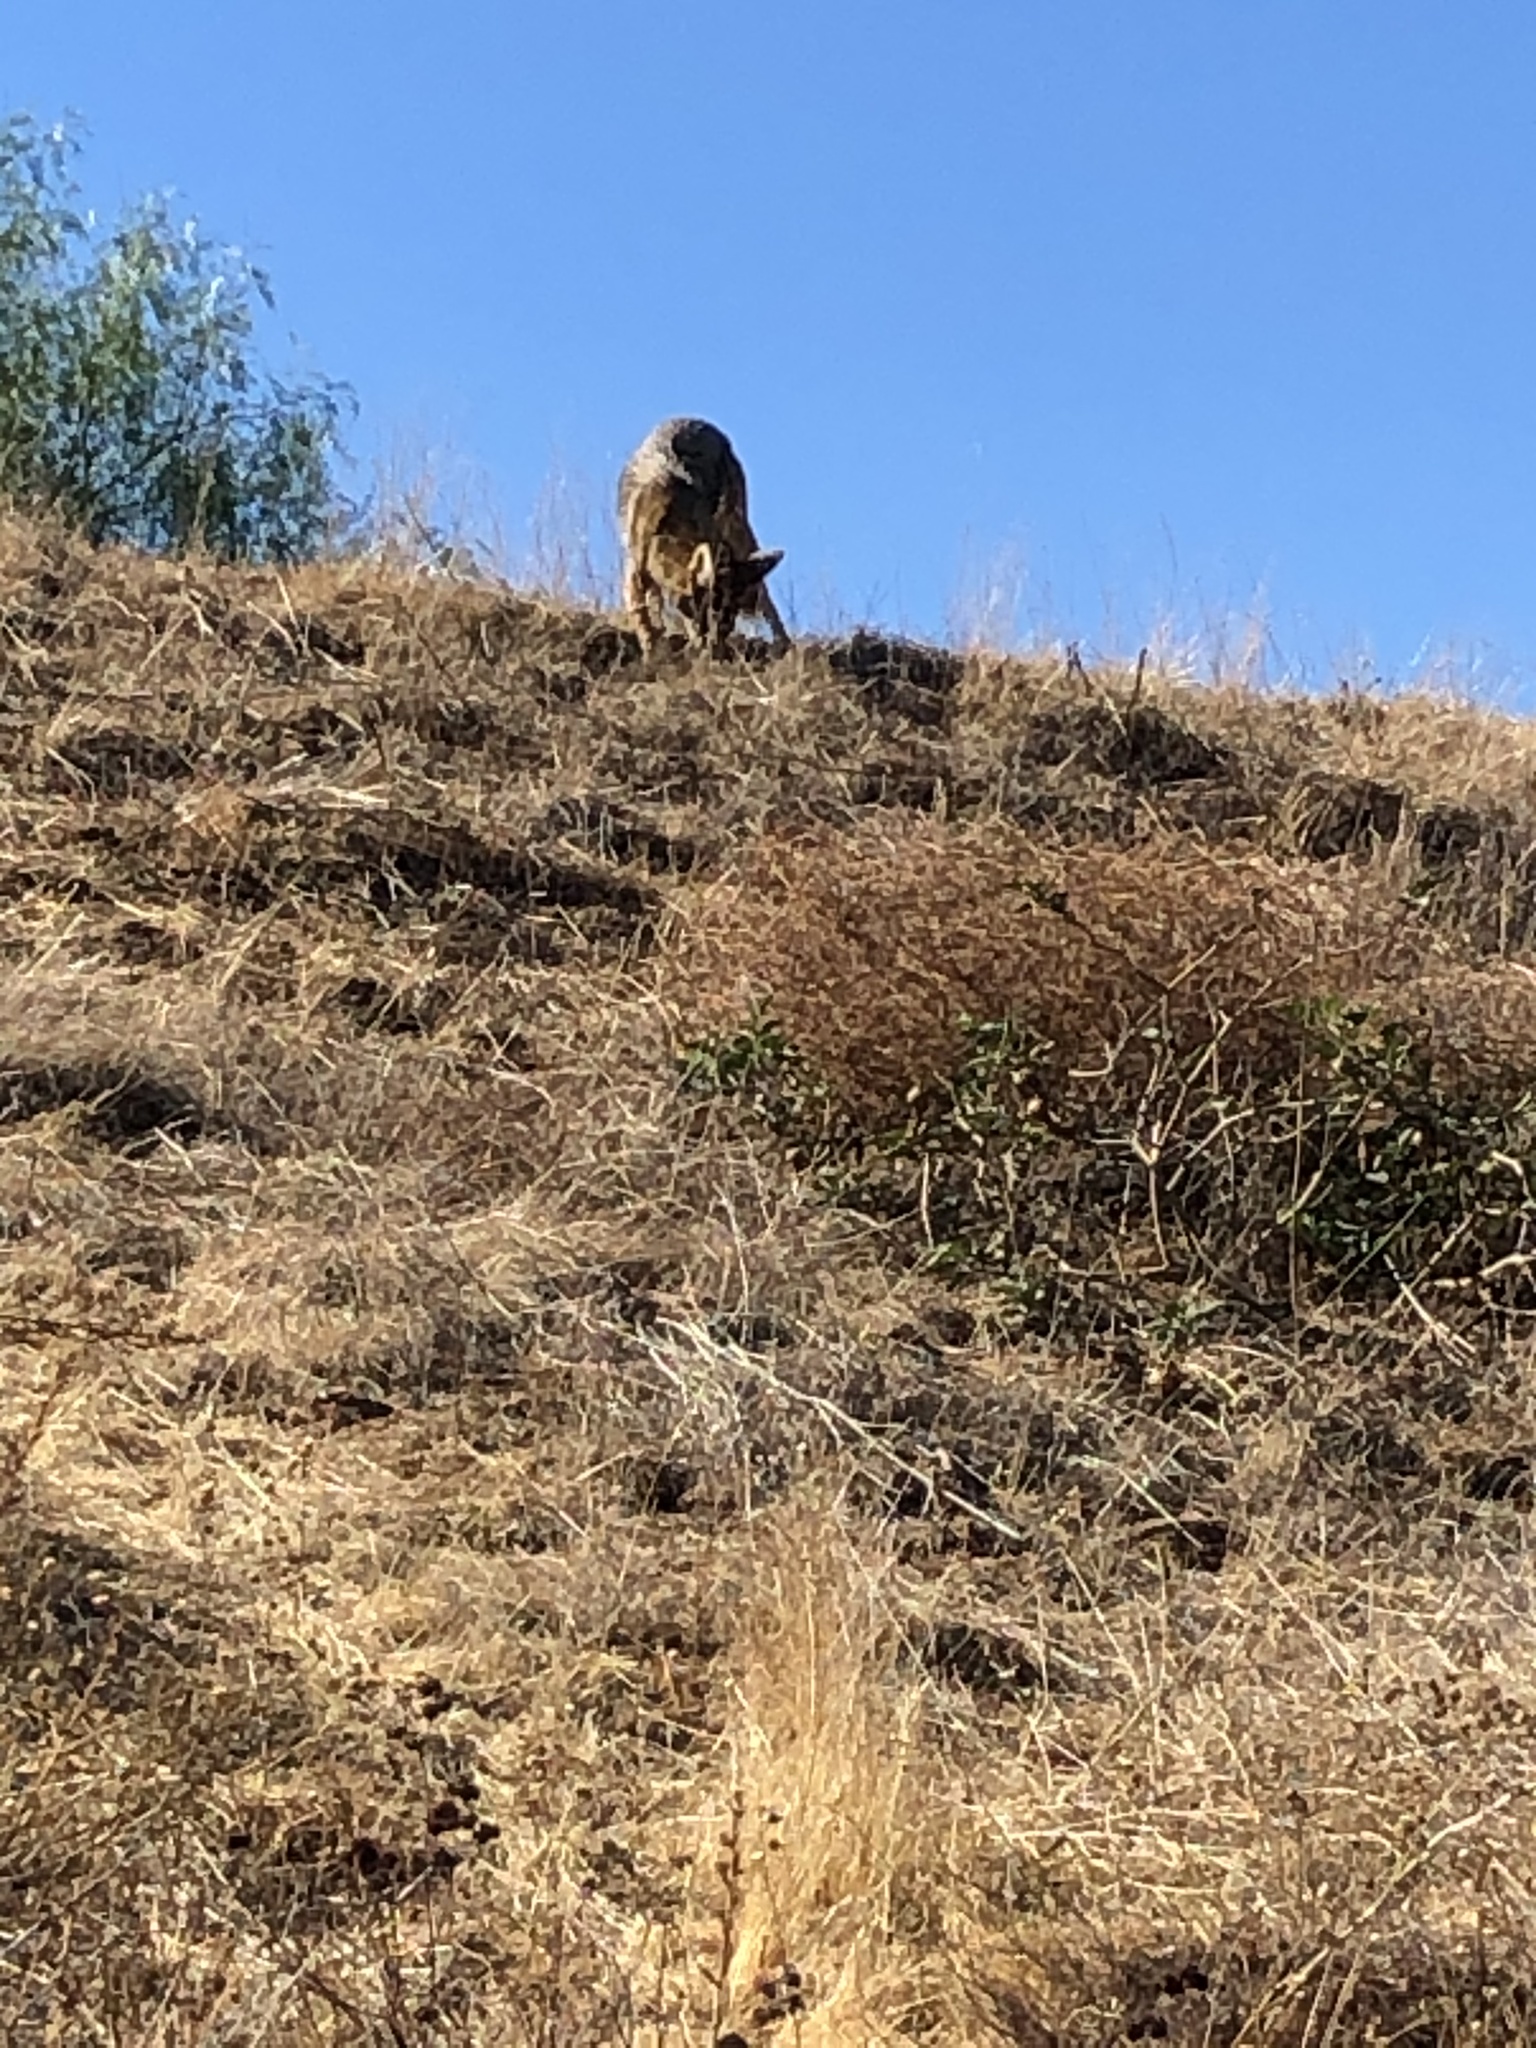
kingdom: Animalia
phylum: Chordata
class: Mammalia
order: Carnivora
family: Canidae
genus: Canis
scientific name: Canis latrans
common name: Coyote
